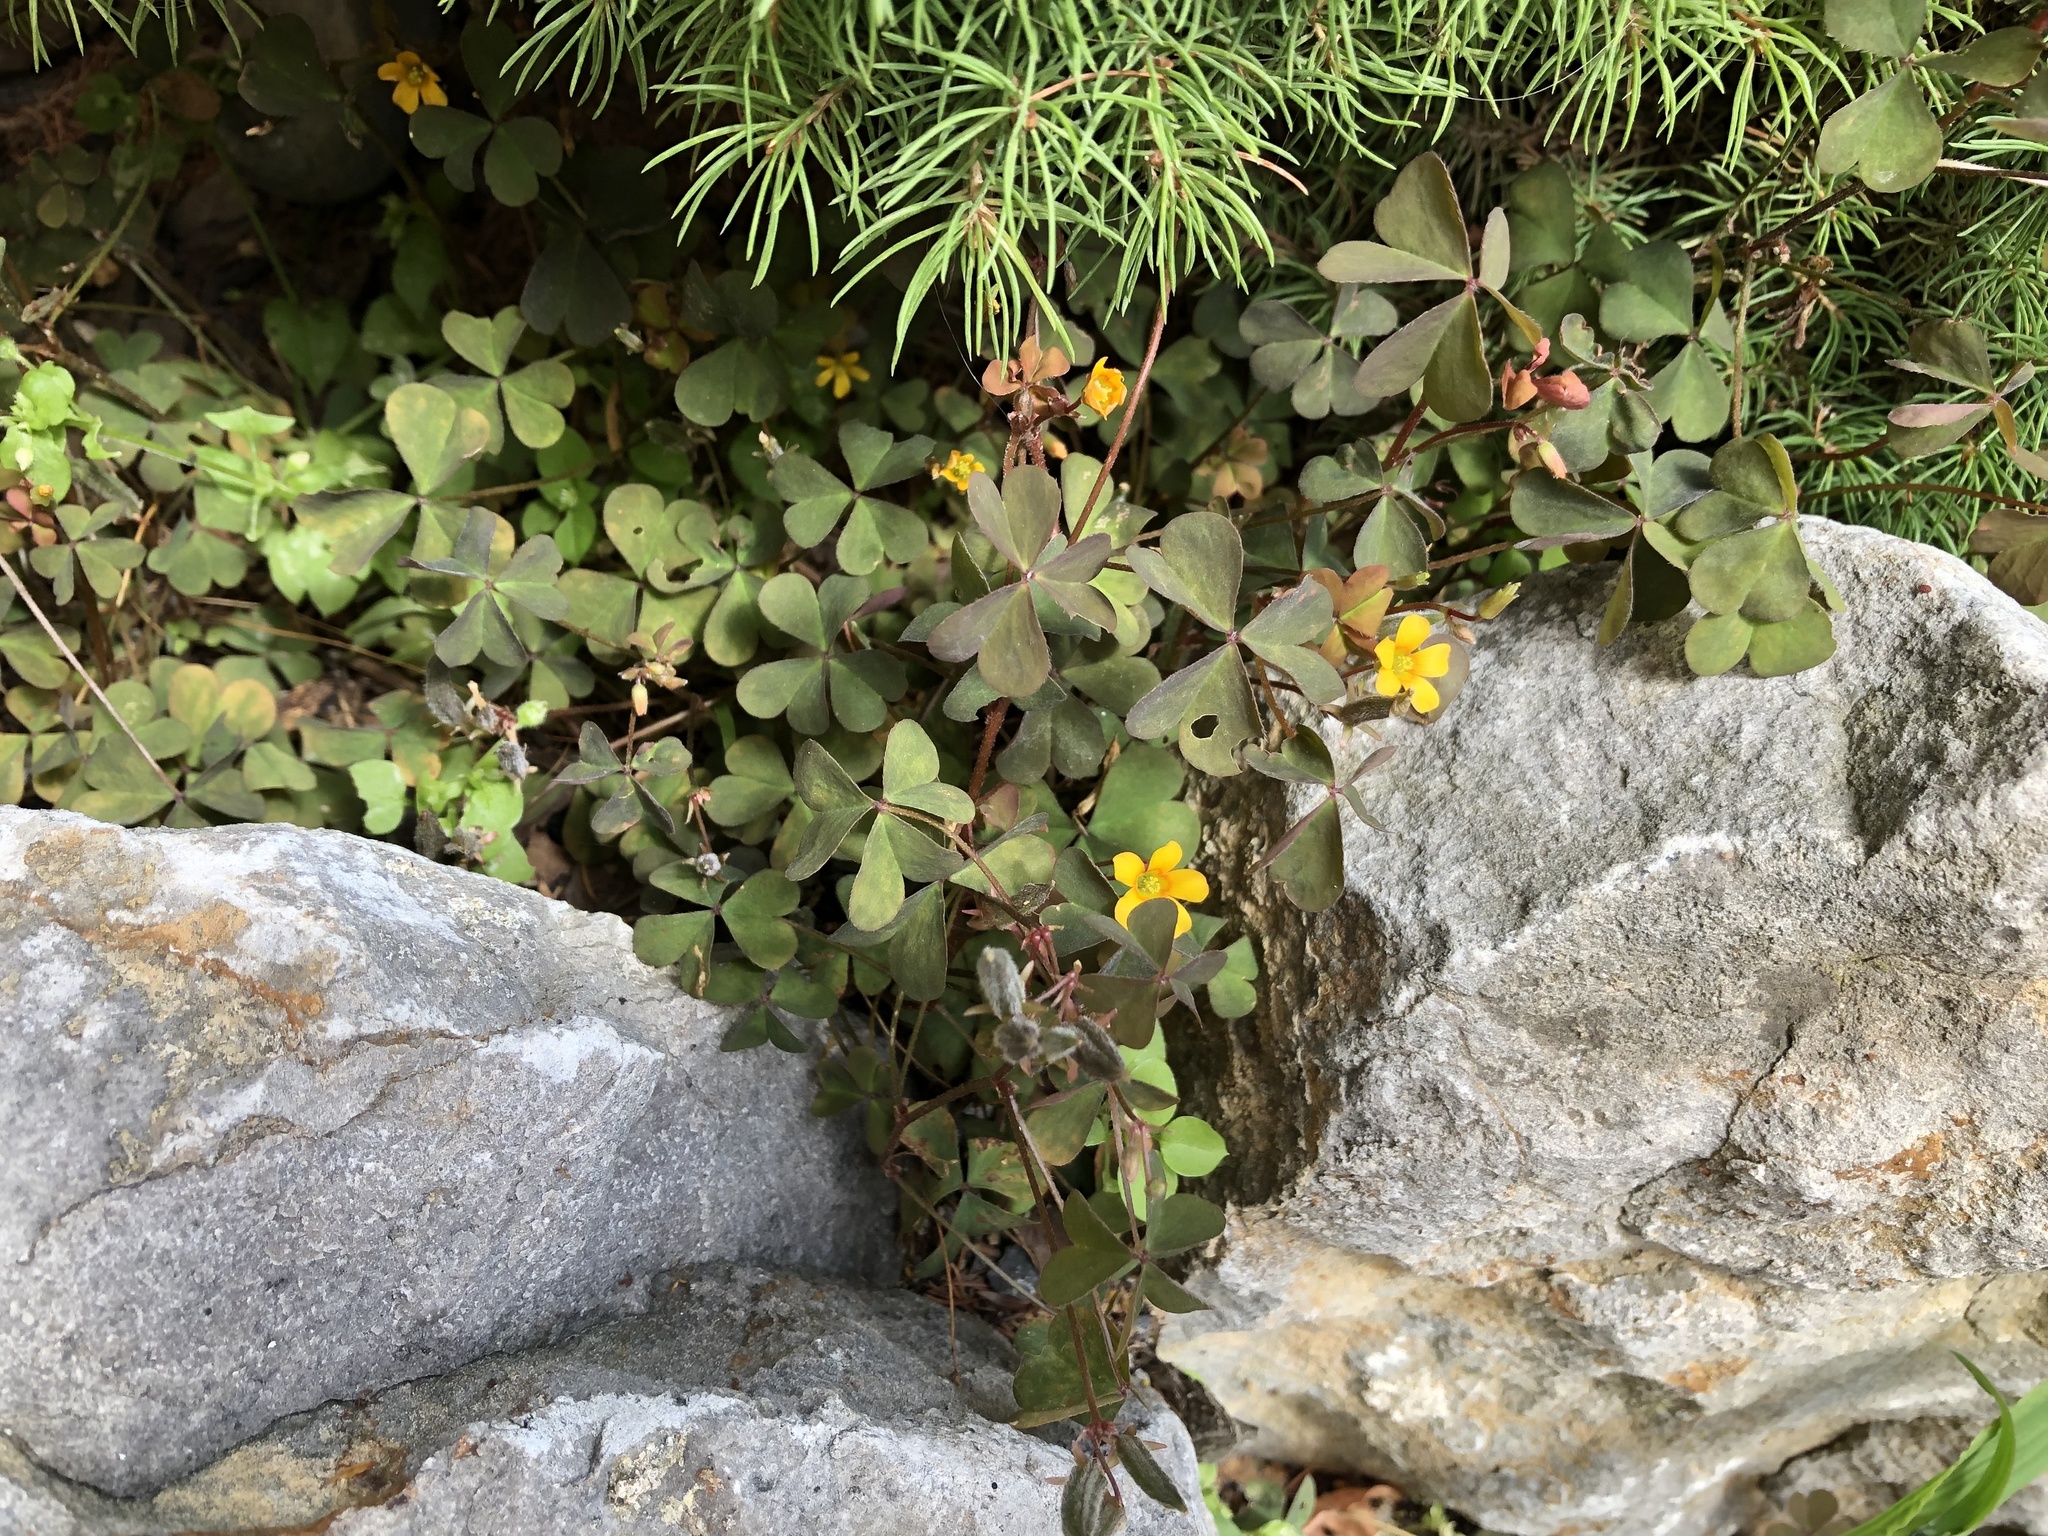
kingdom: Plantae
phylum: Tracheophyta
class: Magnoliopsida
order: Oxalidales
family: Oxalidaceae
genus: Oxalis
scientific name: Oxalis corniculata
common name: Procumbent yellow-sorrel
